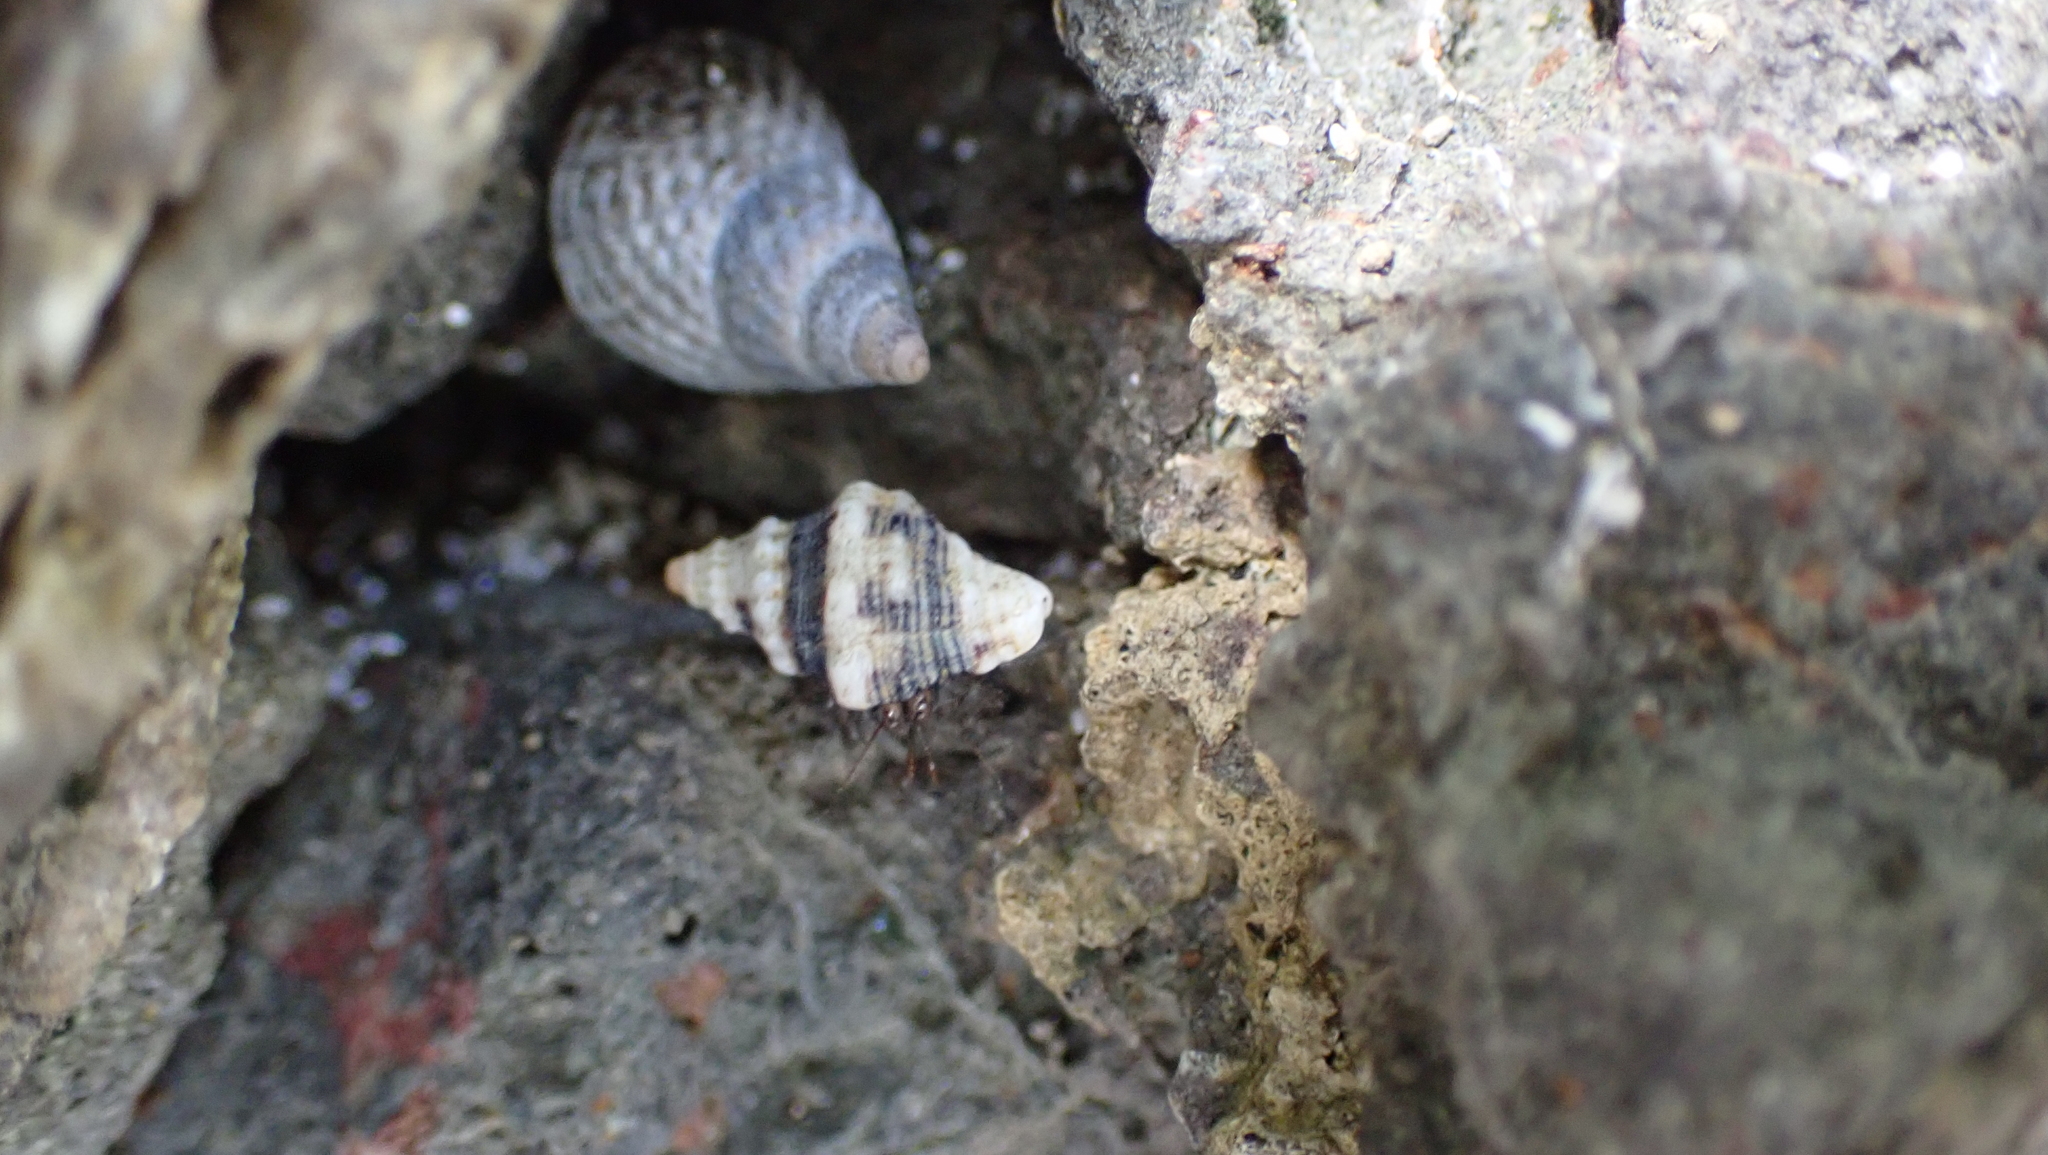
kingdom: Animalia
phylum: Arthropoda
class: Malacostraca
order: Decapoda
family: Coenobitidae
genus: Coenobita
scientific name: Coenobita compressus
